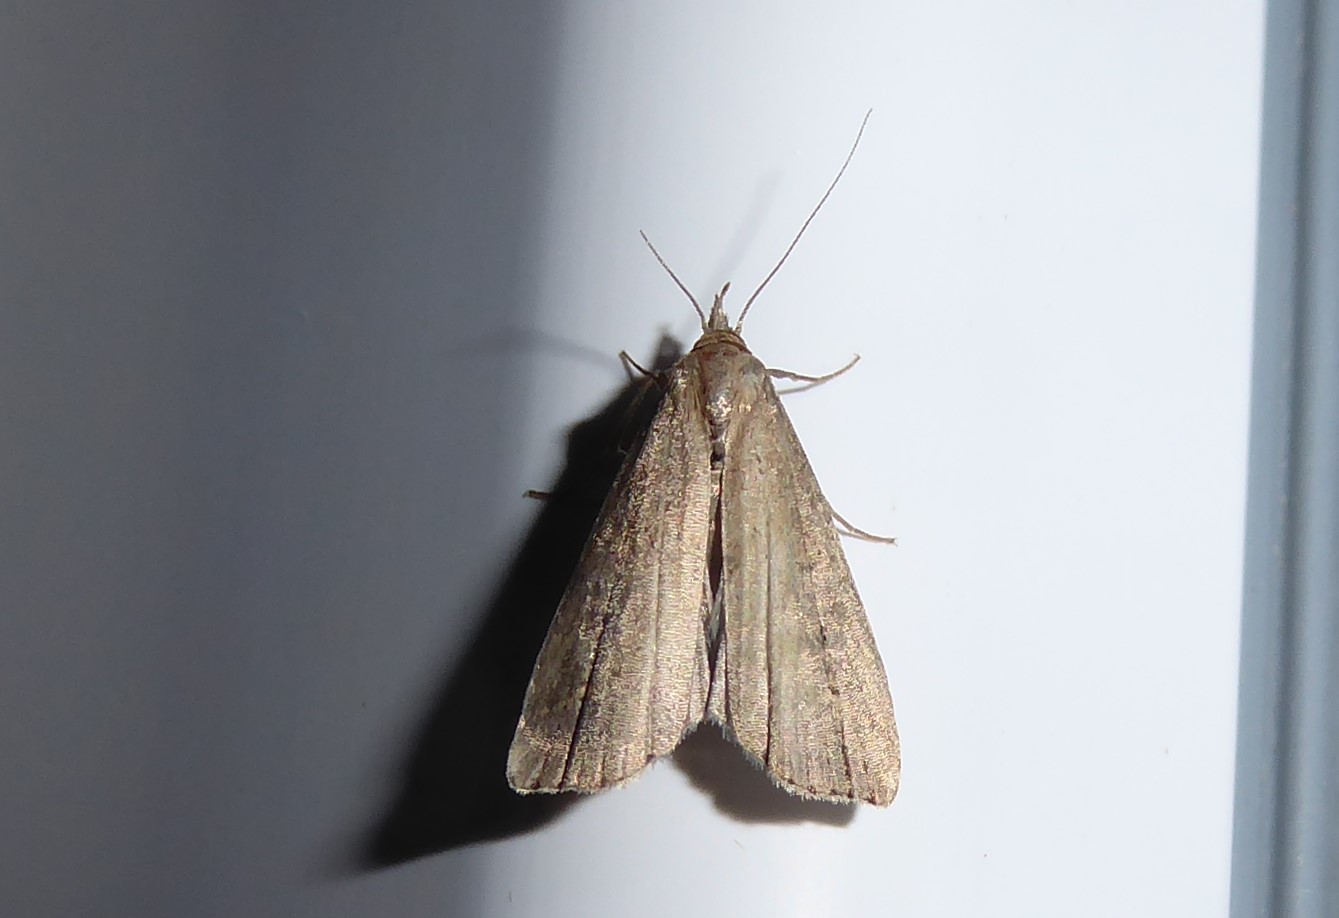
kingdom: Animalia
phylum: Arthropoda
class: Insecta
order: Lepidoptera
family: Erebidae
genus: Schrankia
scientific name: Schrankia costaestrigalis
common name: Pinion-streaked snout
